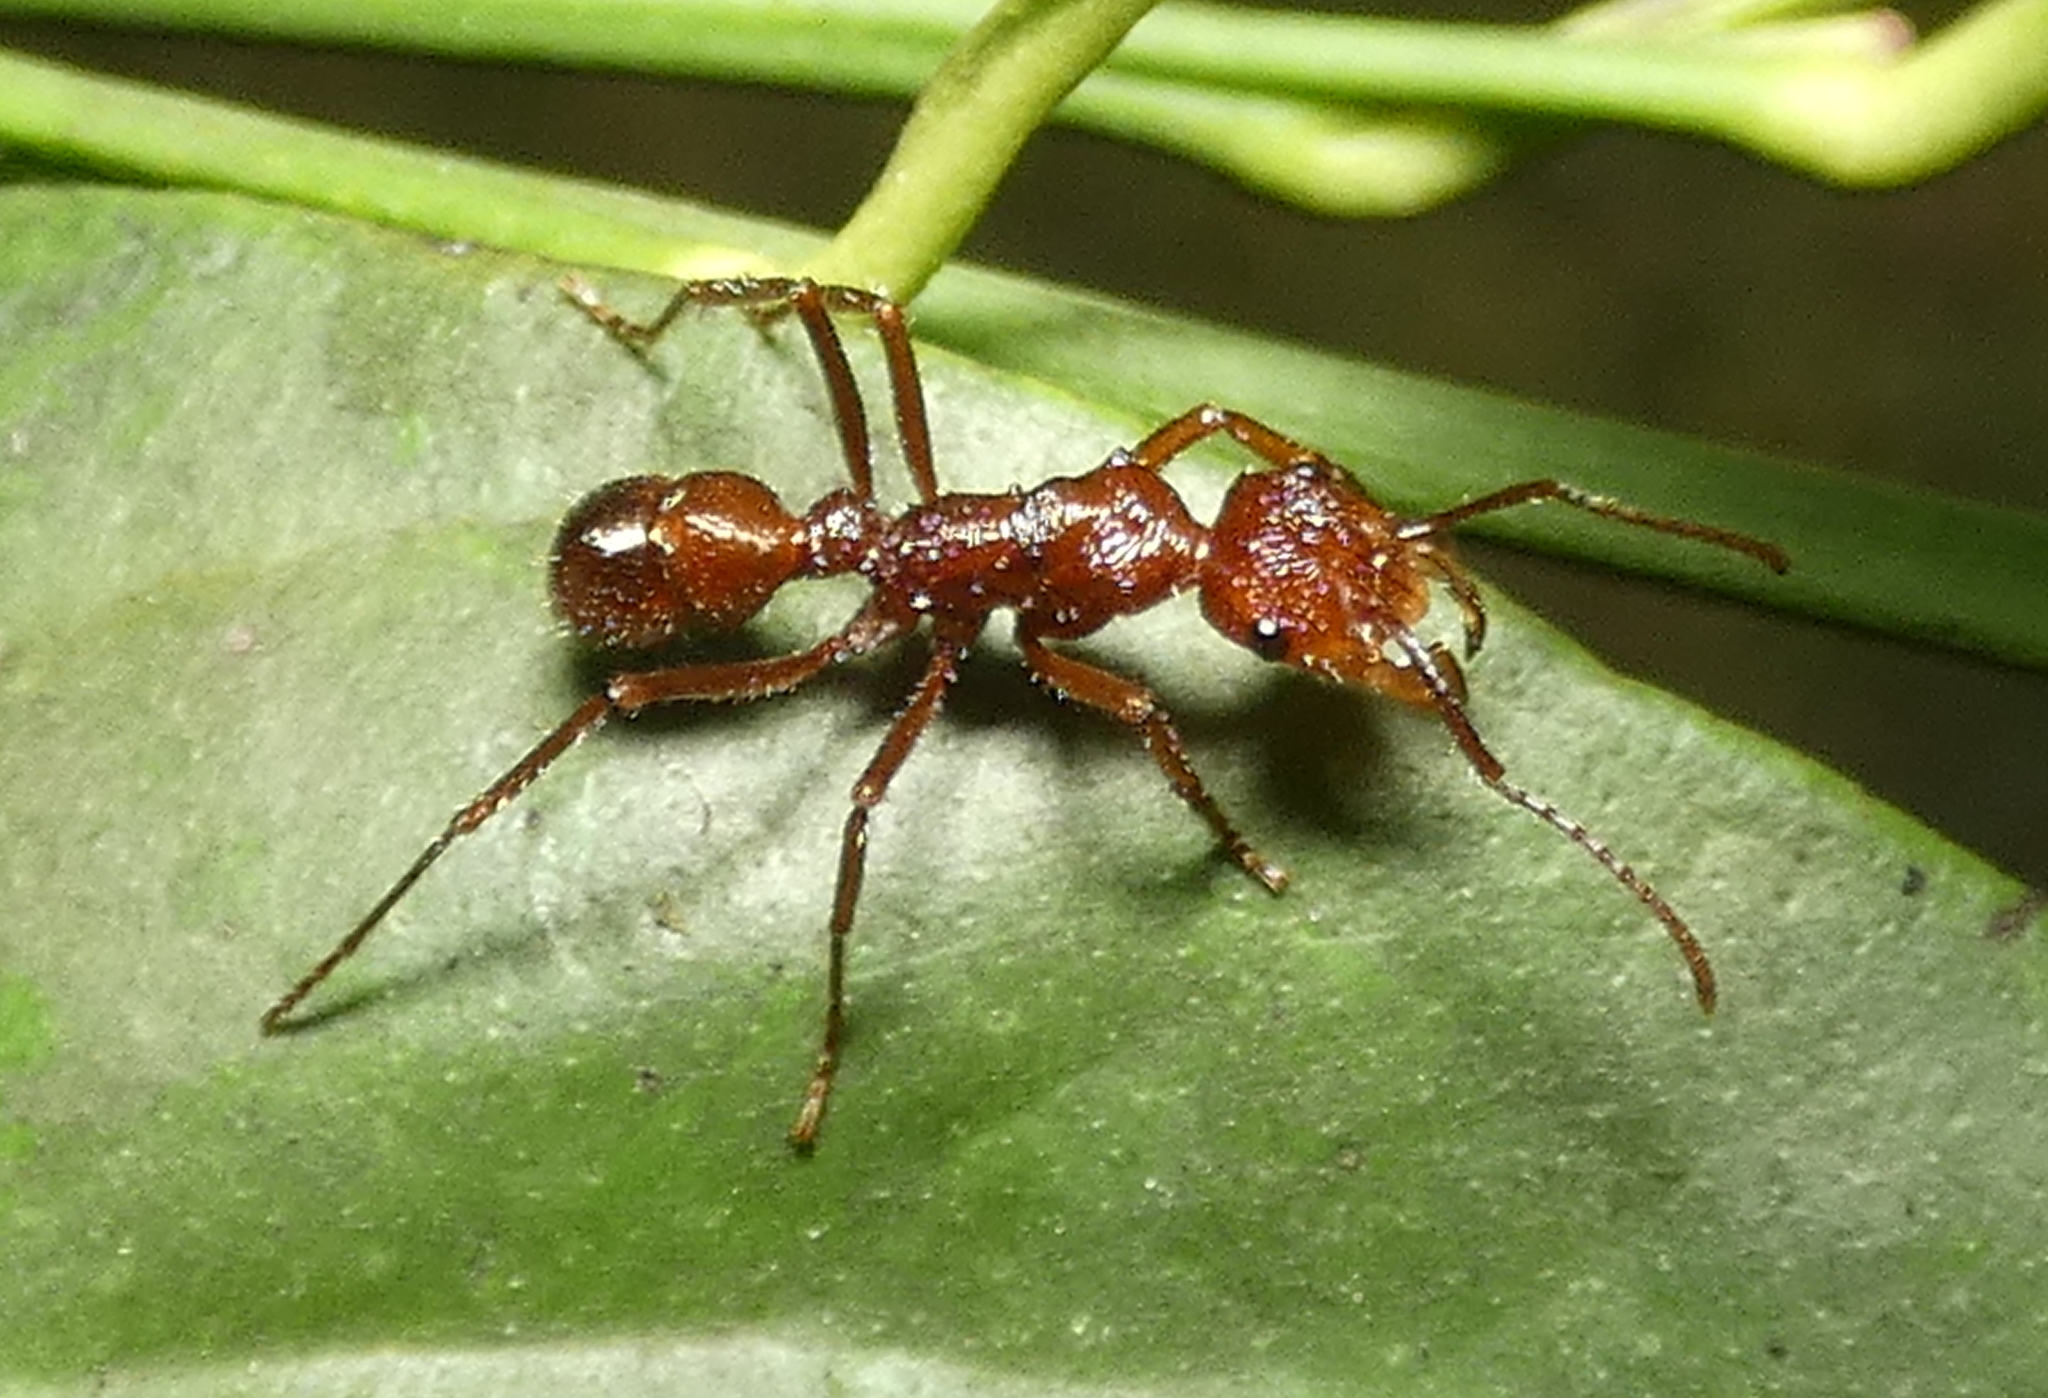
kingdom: Animalia
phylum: Arthropoda
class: Insecta
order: Hymenoptera
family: Formicidae
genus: Ectatomma
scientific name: Ectatomma tuberculatum
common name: Ant
